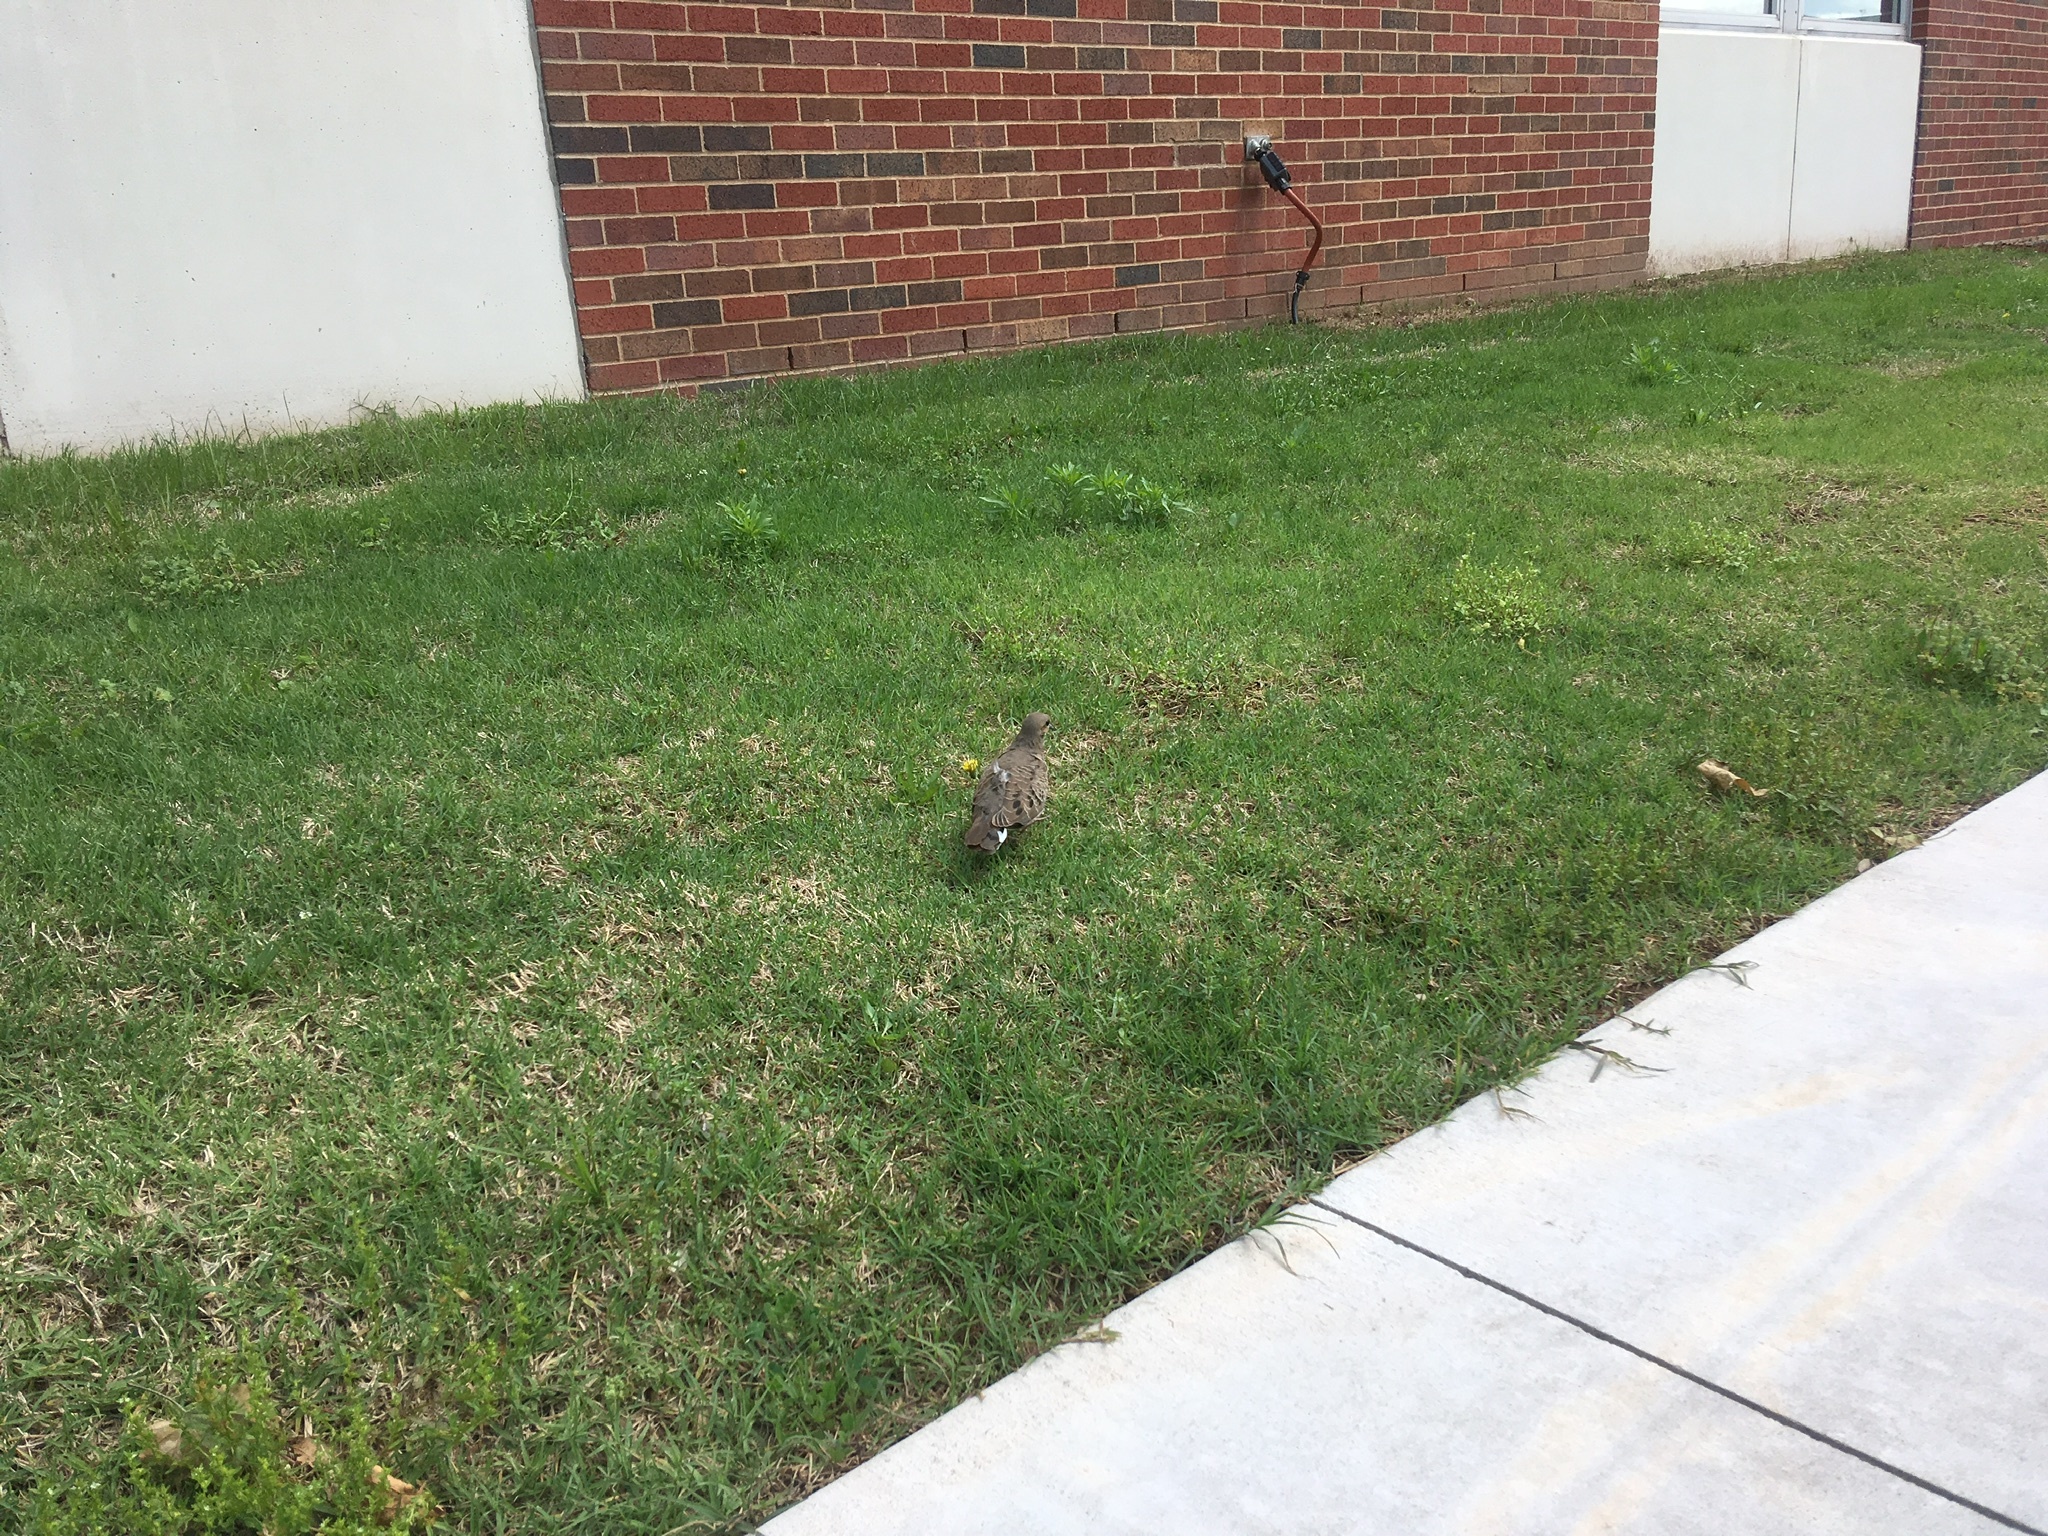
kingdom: Animalia
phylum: Chordata
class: Aves
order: Columbiformes
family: Columbidae
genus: Zenaida
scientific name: Zenaida macroura
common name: Mourning dove
